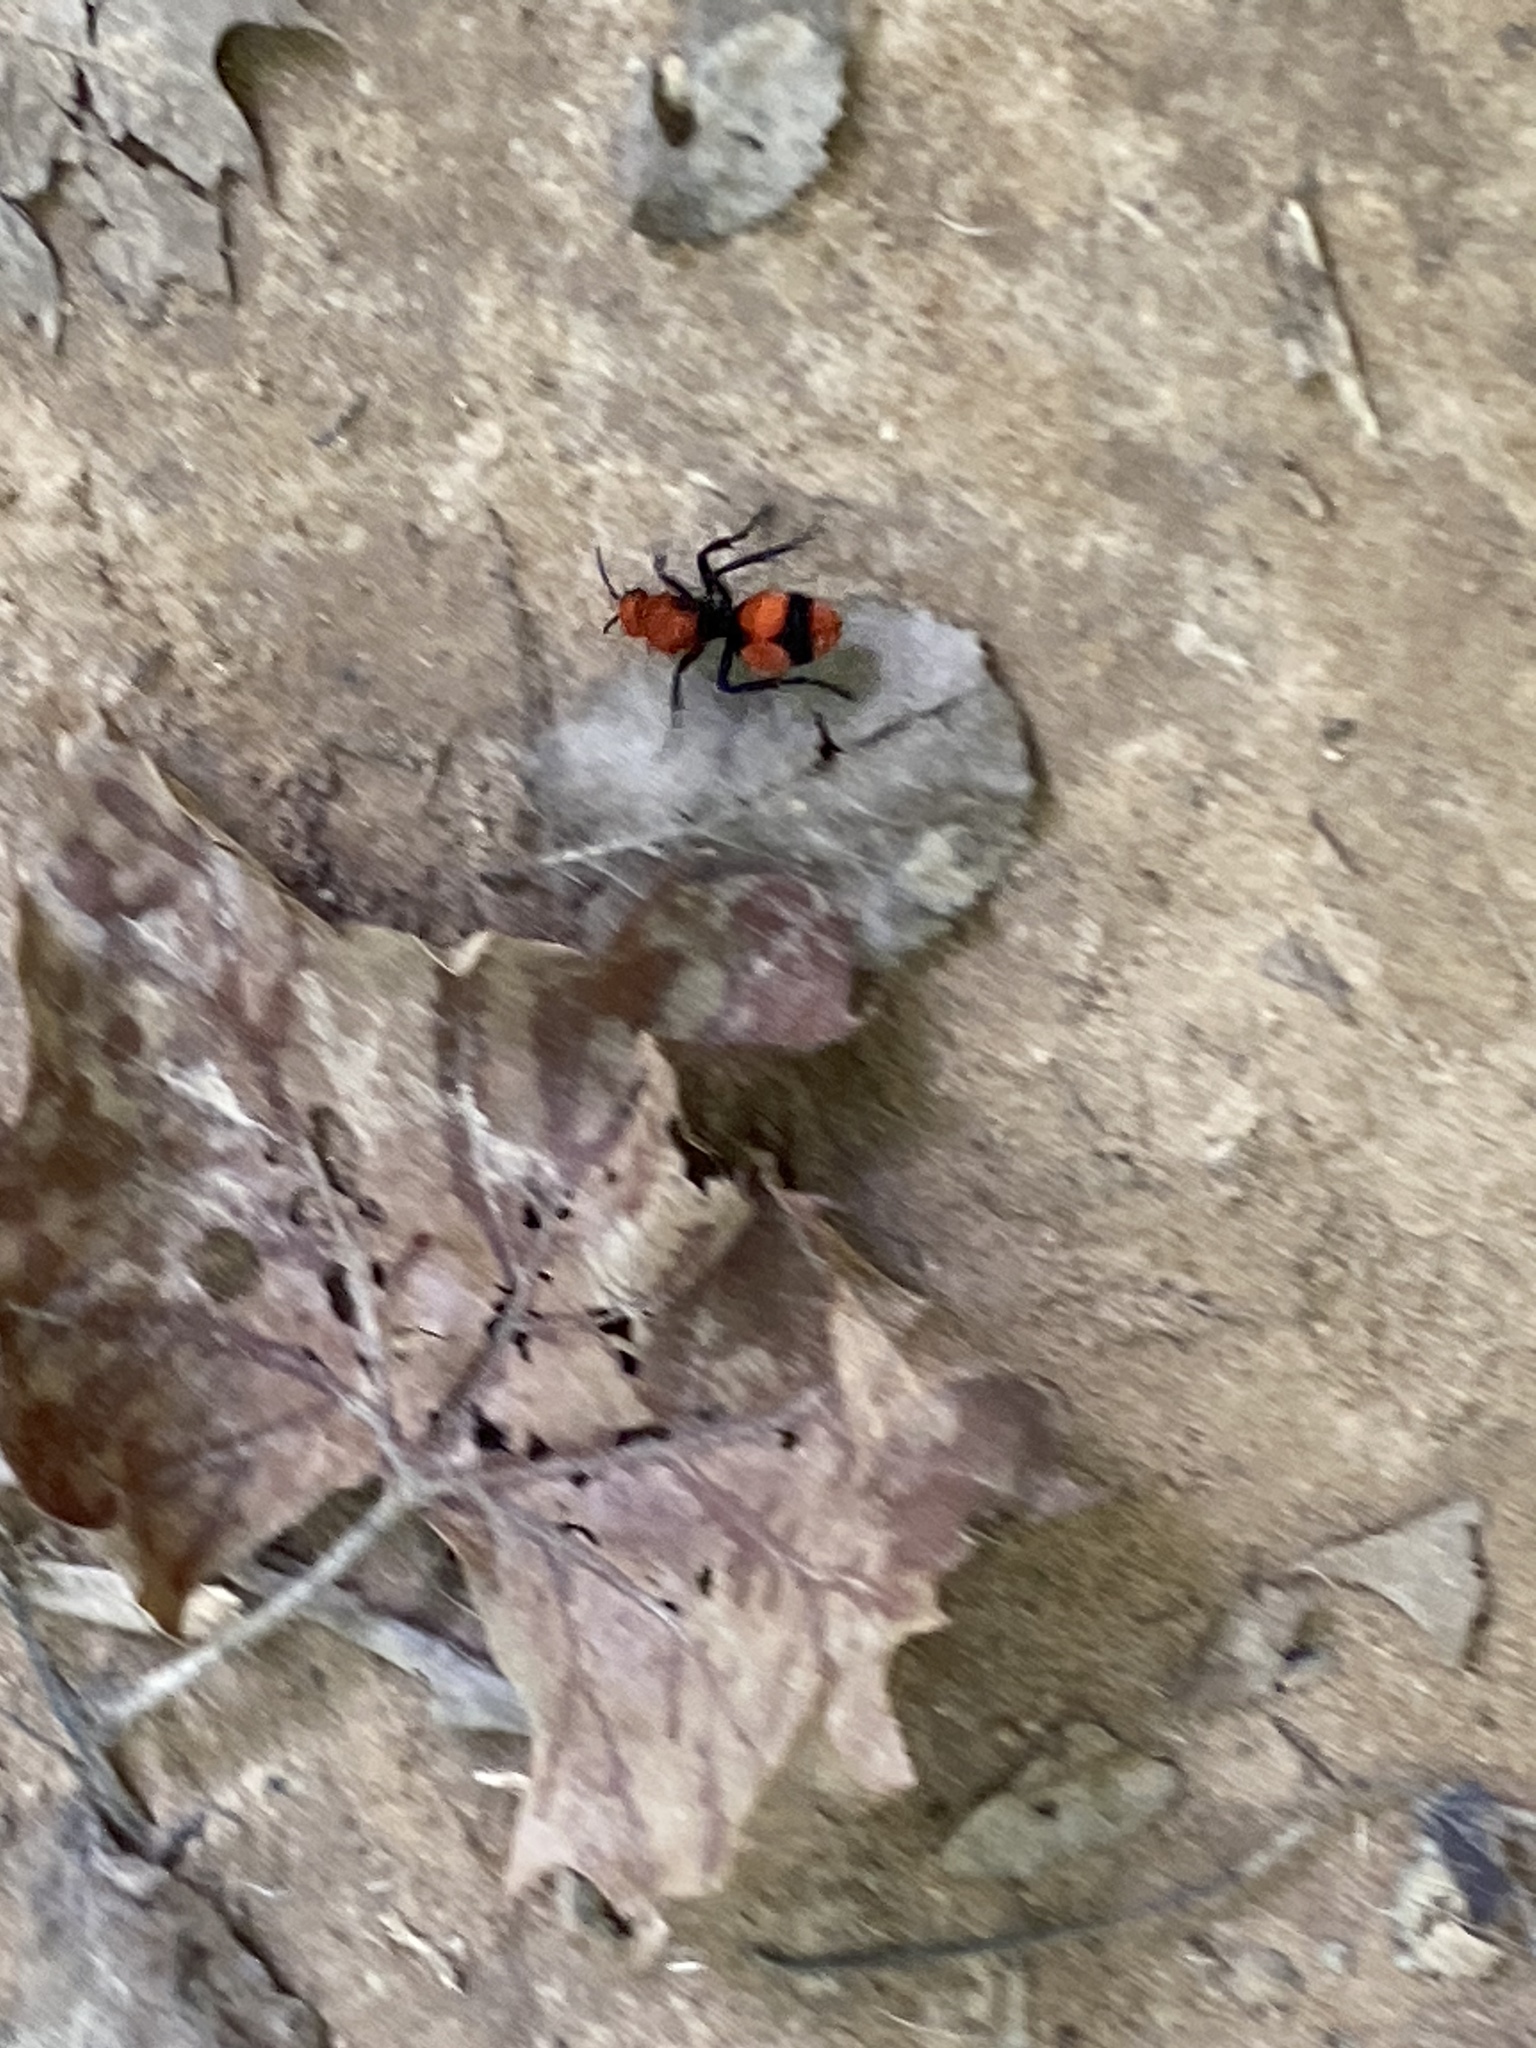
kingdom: Animalia
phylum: Arthropoda
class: Insecta
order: Hymenoptera
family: Mutillidae
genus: Dasymutilla
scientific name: Dasymutilla occidentalis
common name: Common eastern velvet ant
